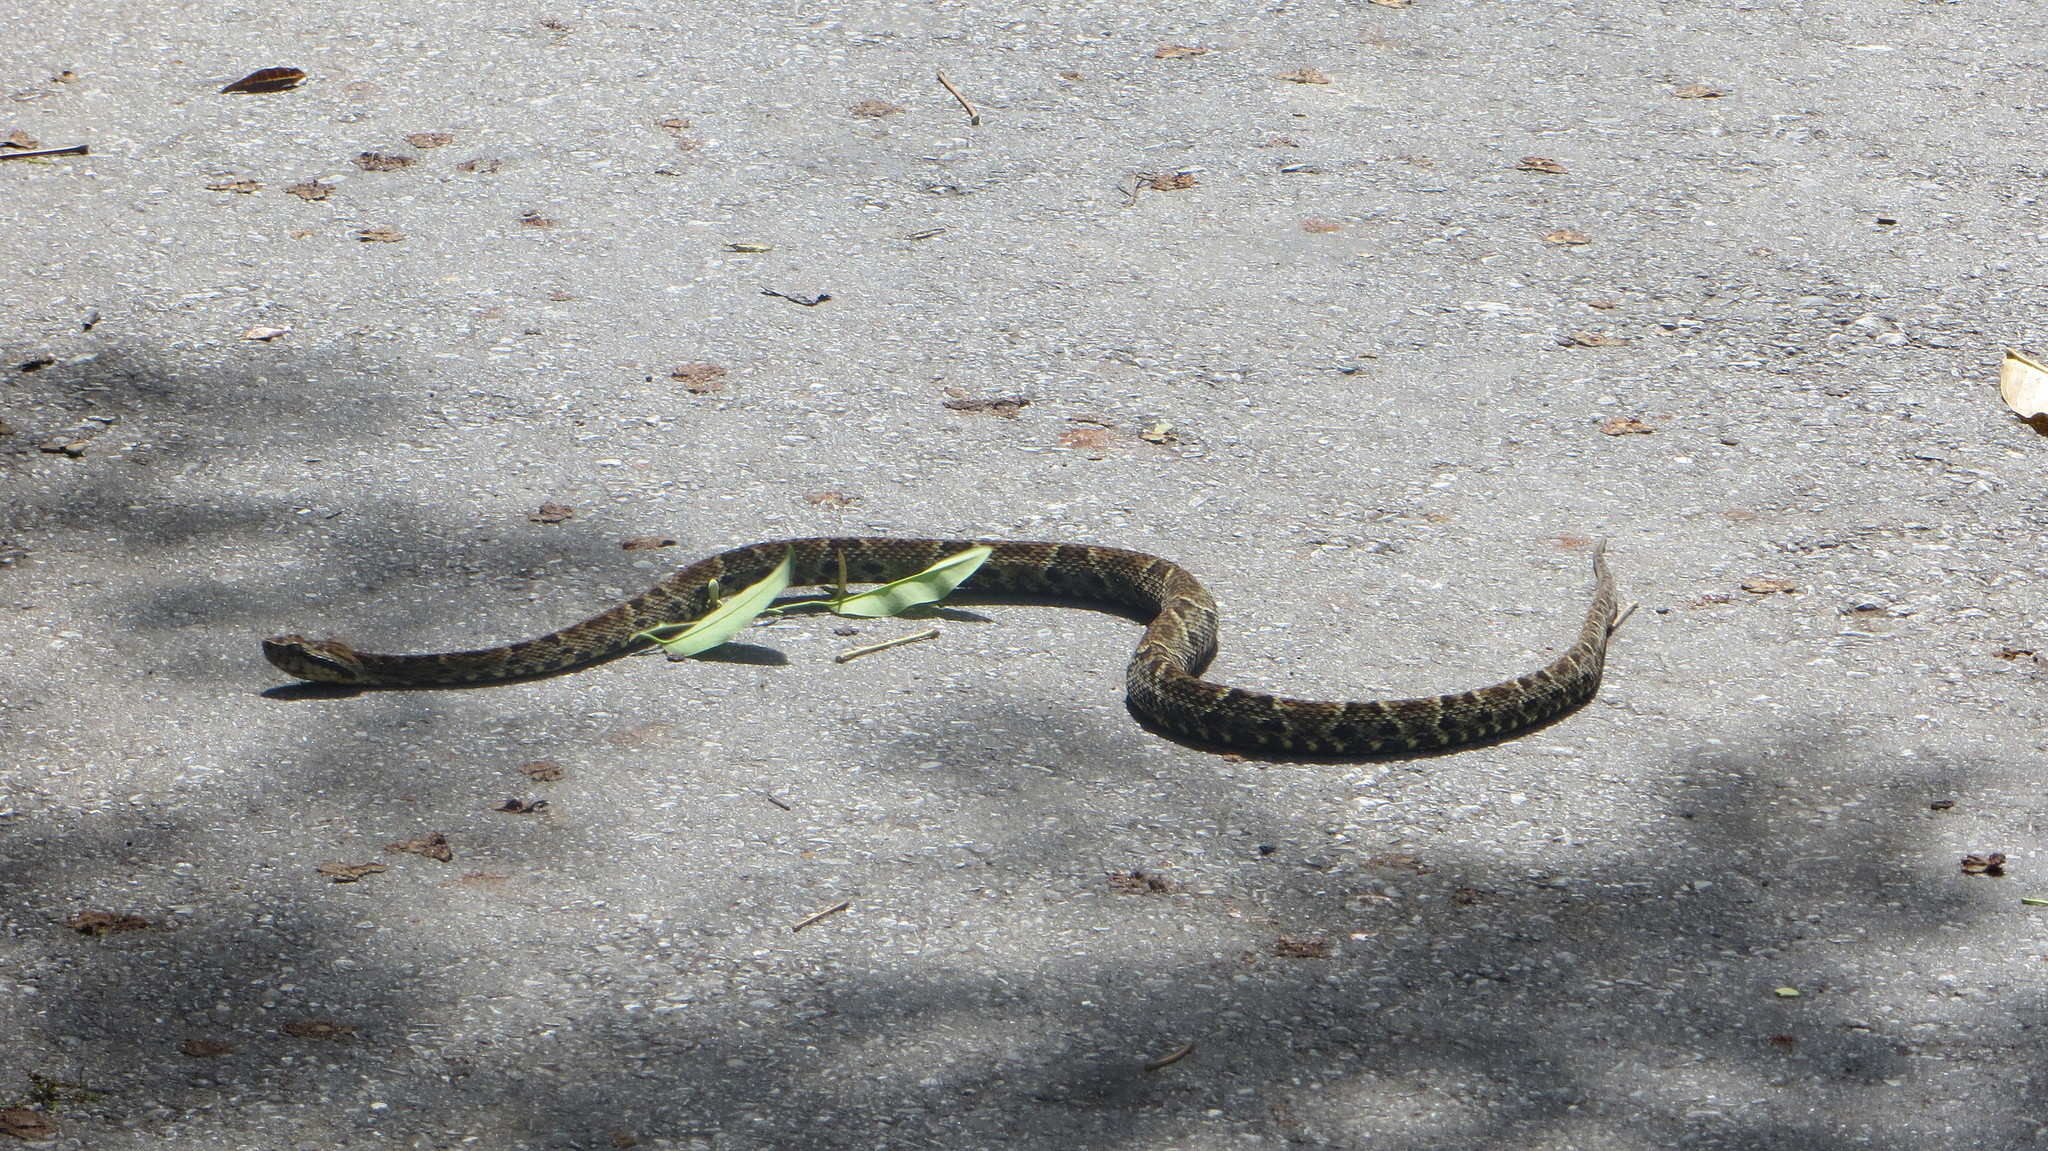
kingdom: Animalia
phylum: Chordata
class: Squamata
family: Viperidae
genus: Bothrops
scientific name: Bothrops atrox
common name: Common lancehead
